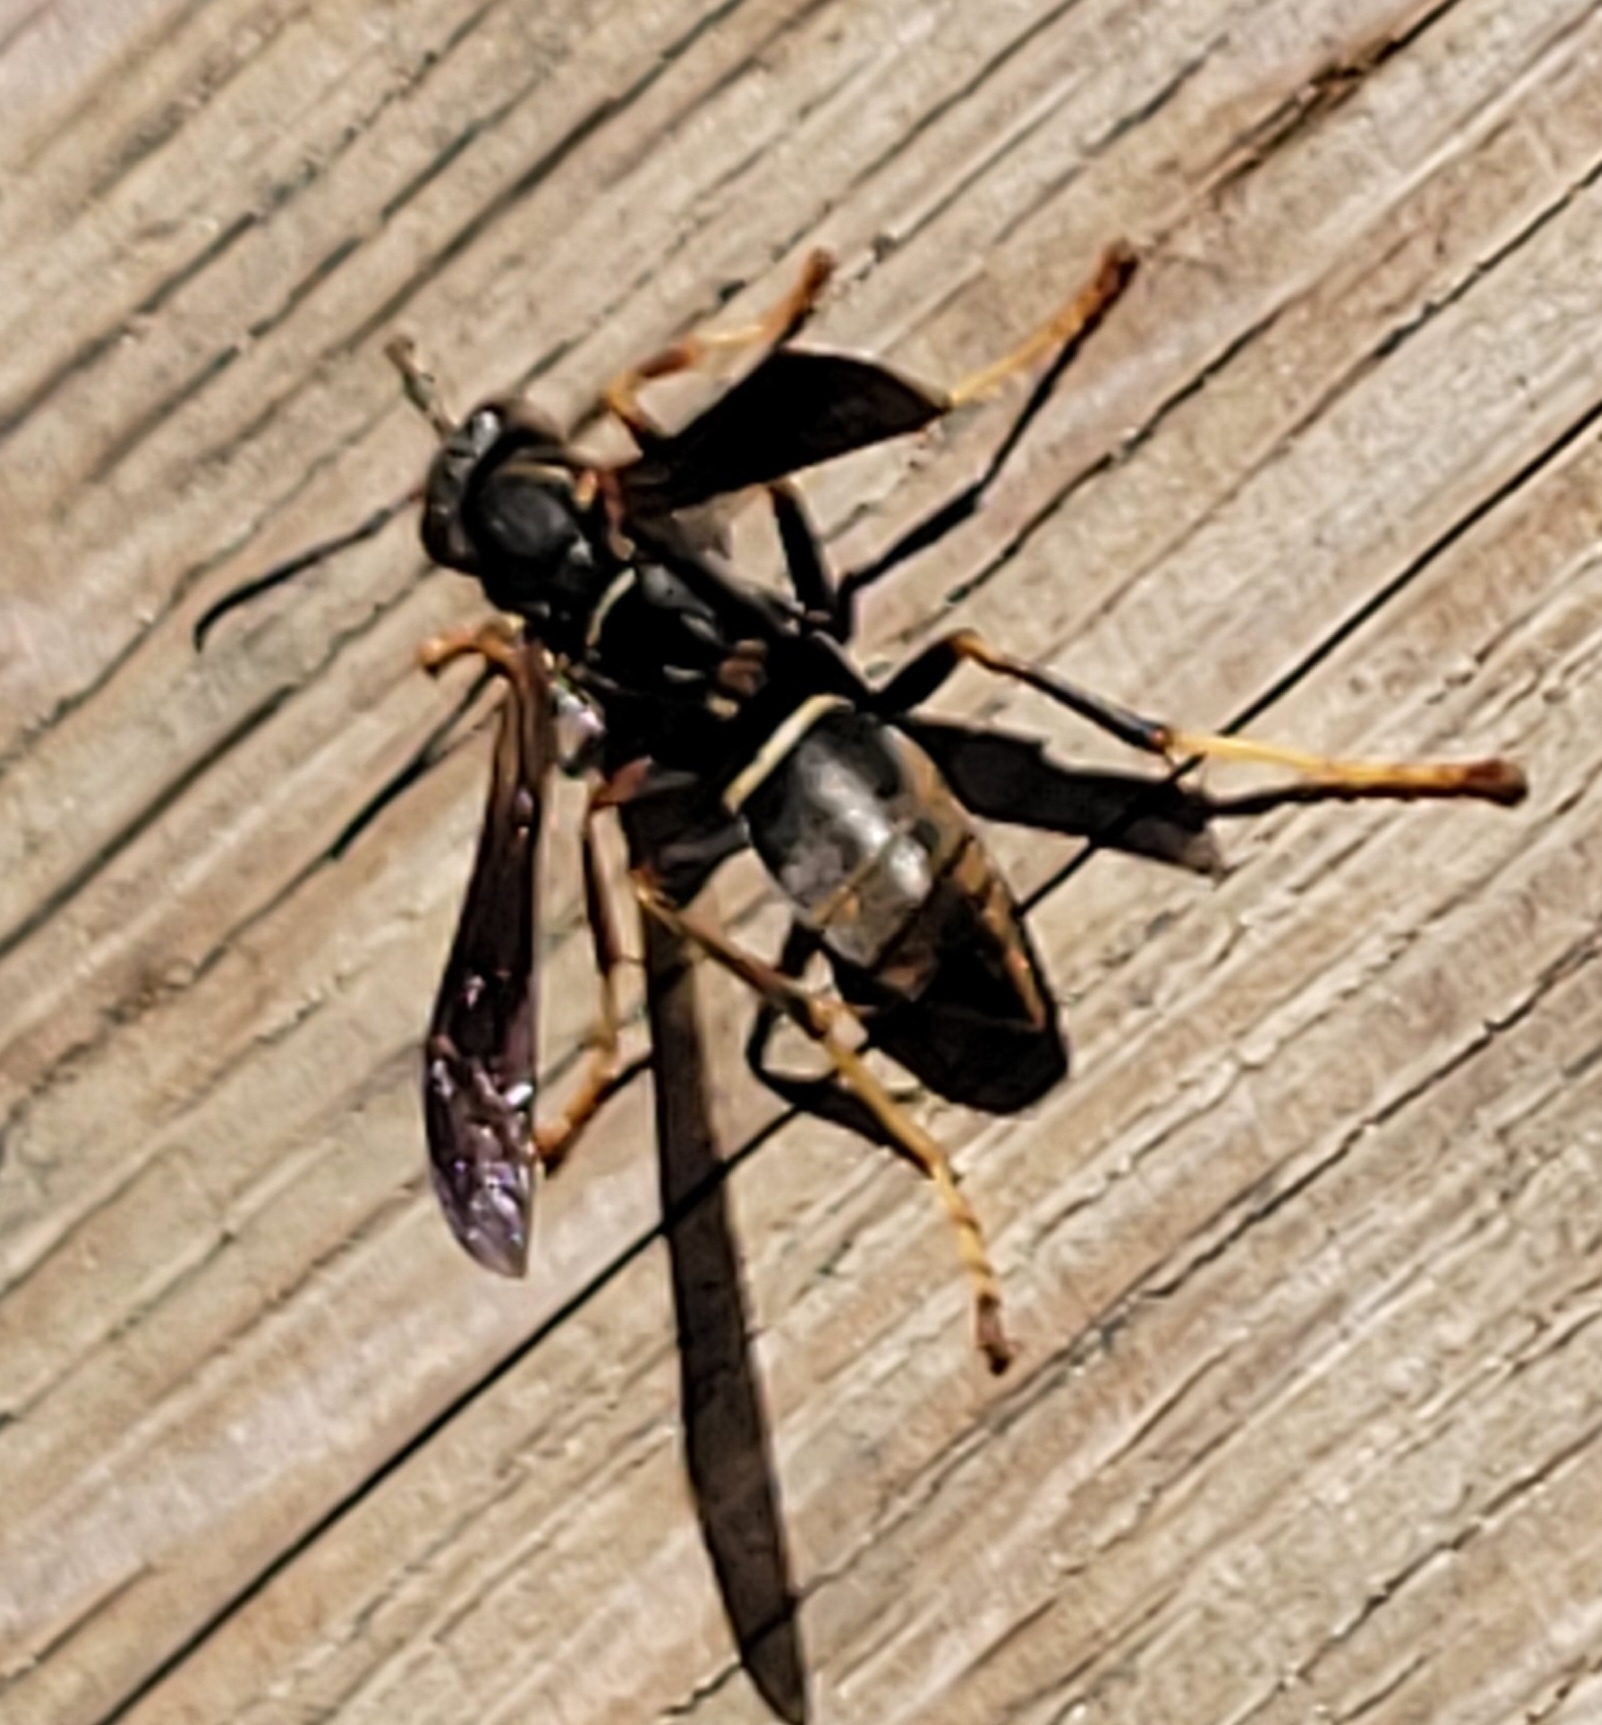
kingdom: Animalia
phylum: Arthropoda
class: Insecta
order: Hymenoptera
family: Eumenidae
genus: Polistes
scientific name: Polistes fuscatus
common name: Dark paper wasp
